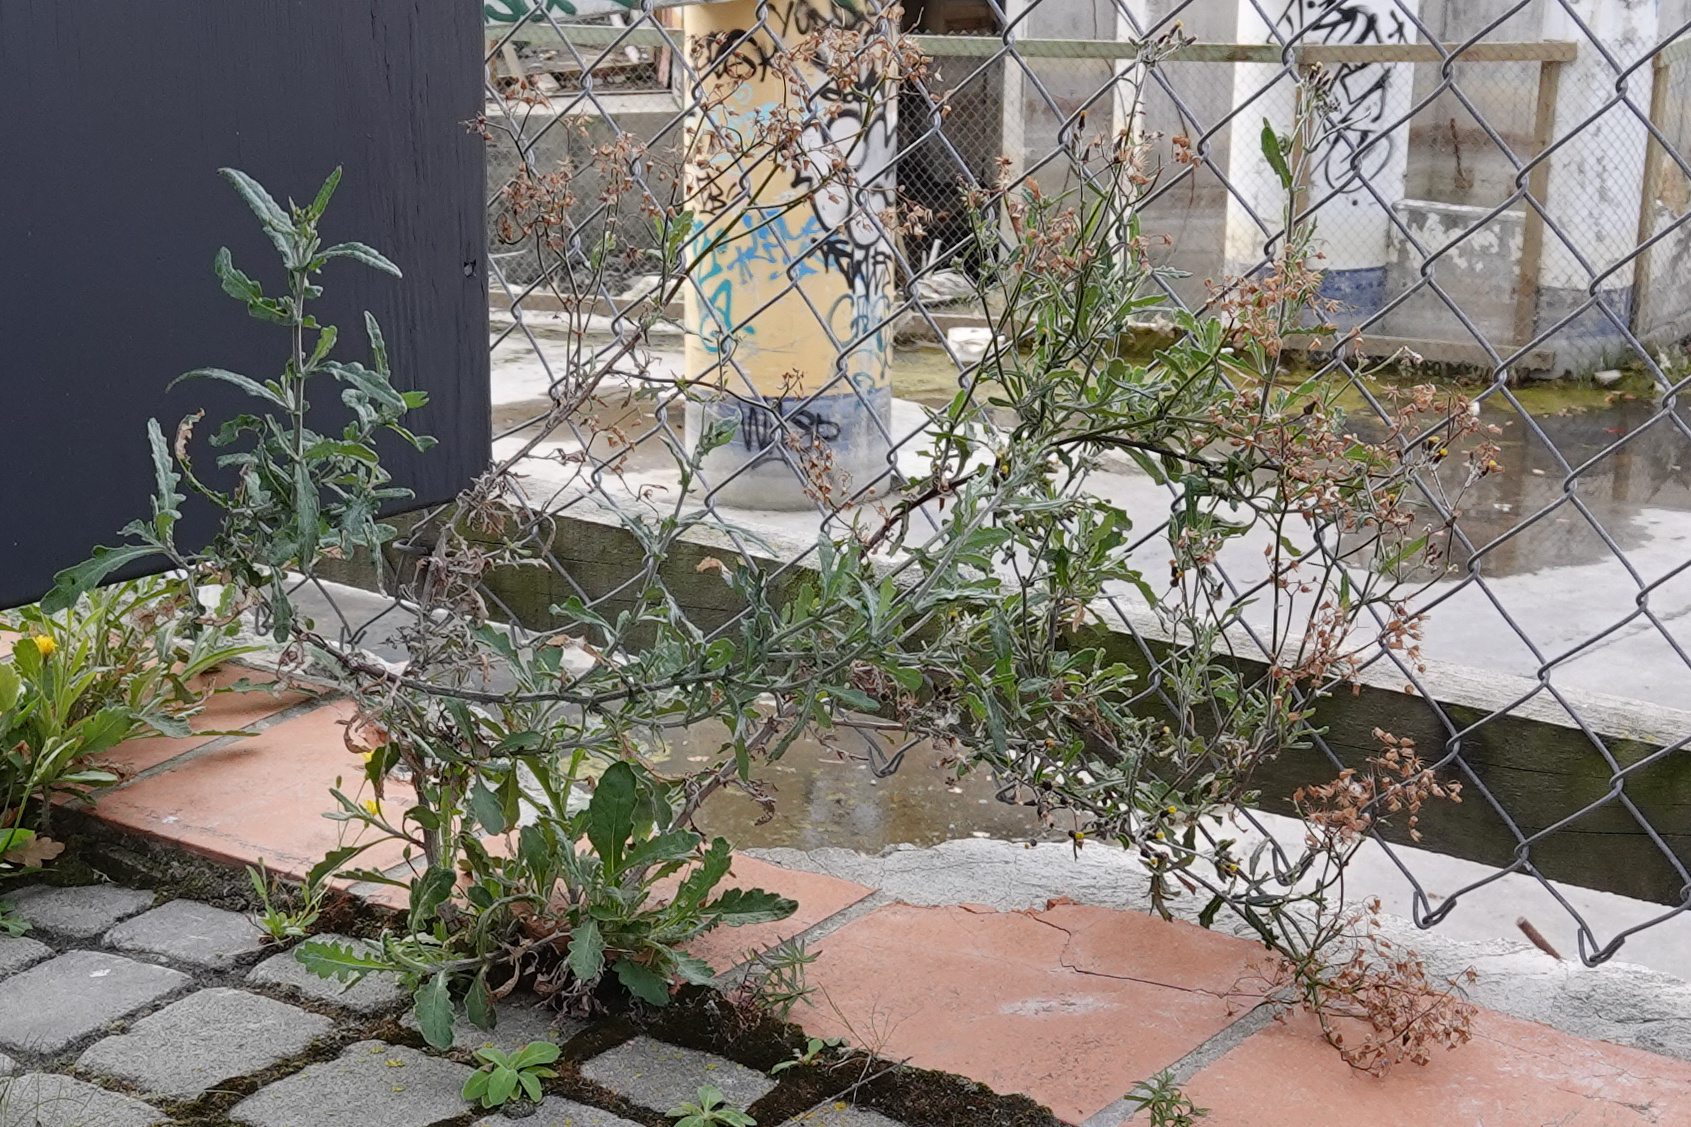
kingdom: Plantae
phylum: Tracheophyta
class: Magnoliopsida
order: Asterales
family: Asteraceae
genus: Senecio
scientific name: Senecio glomeratus
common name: Cutleaf burnweed
